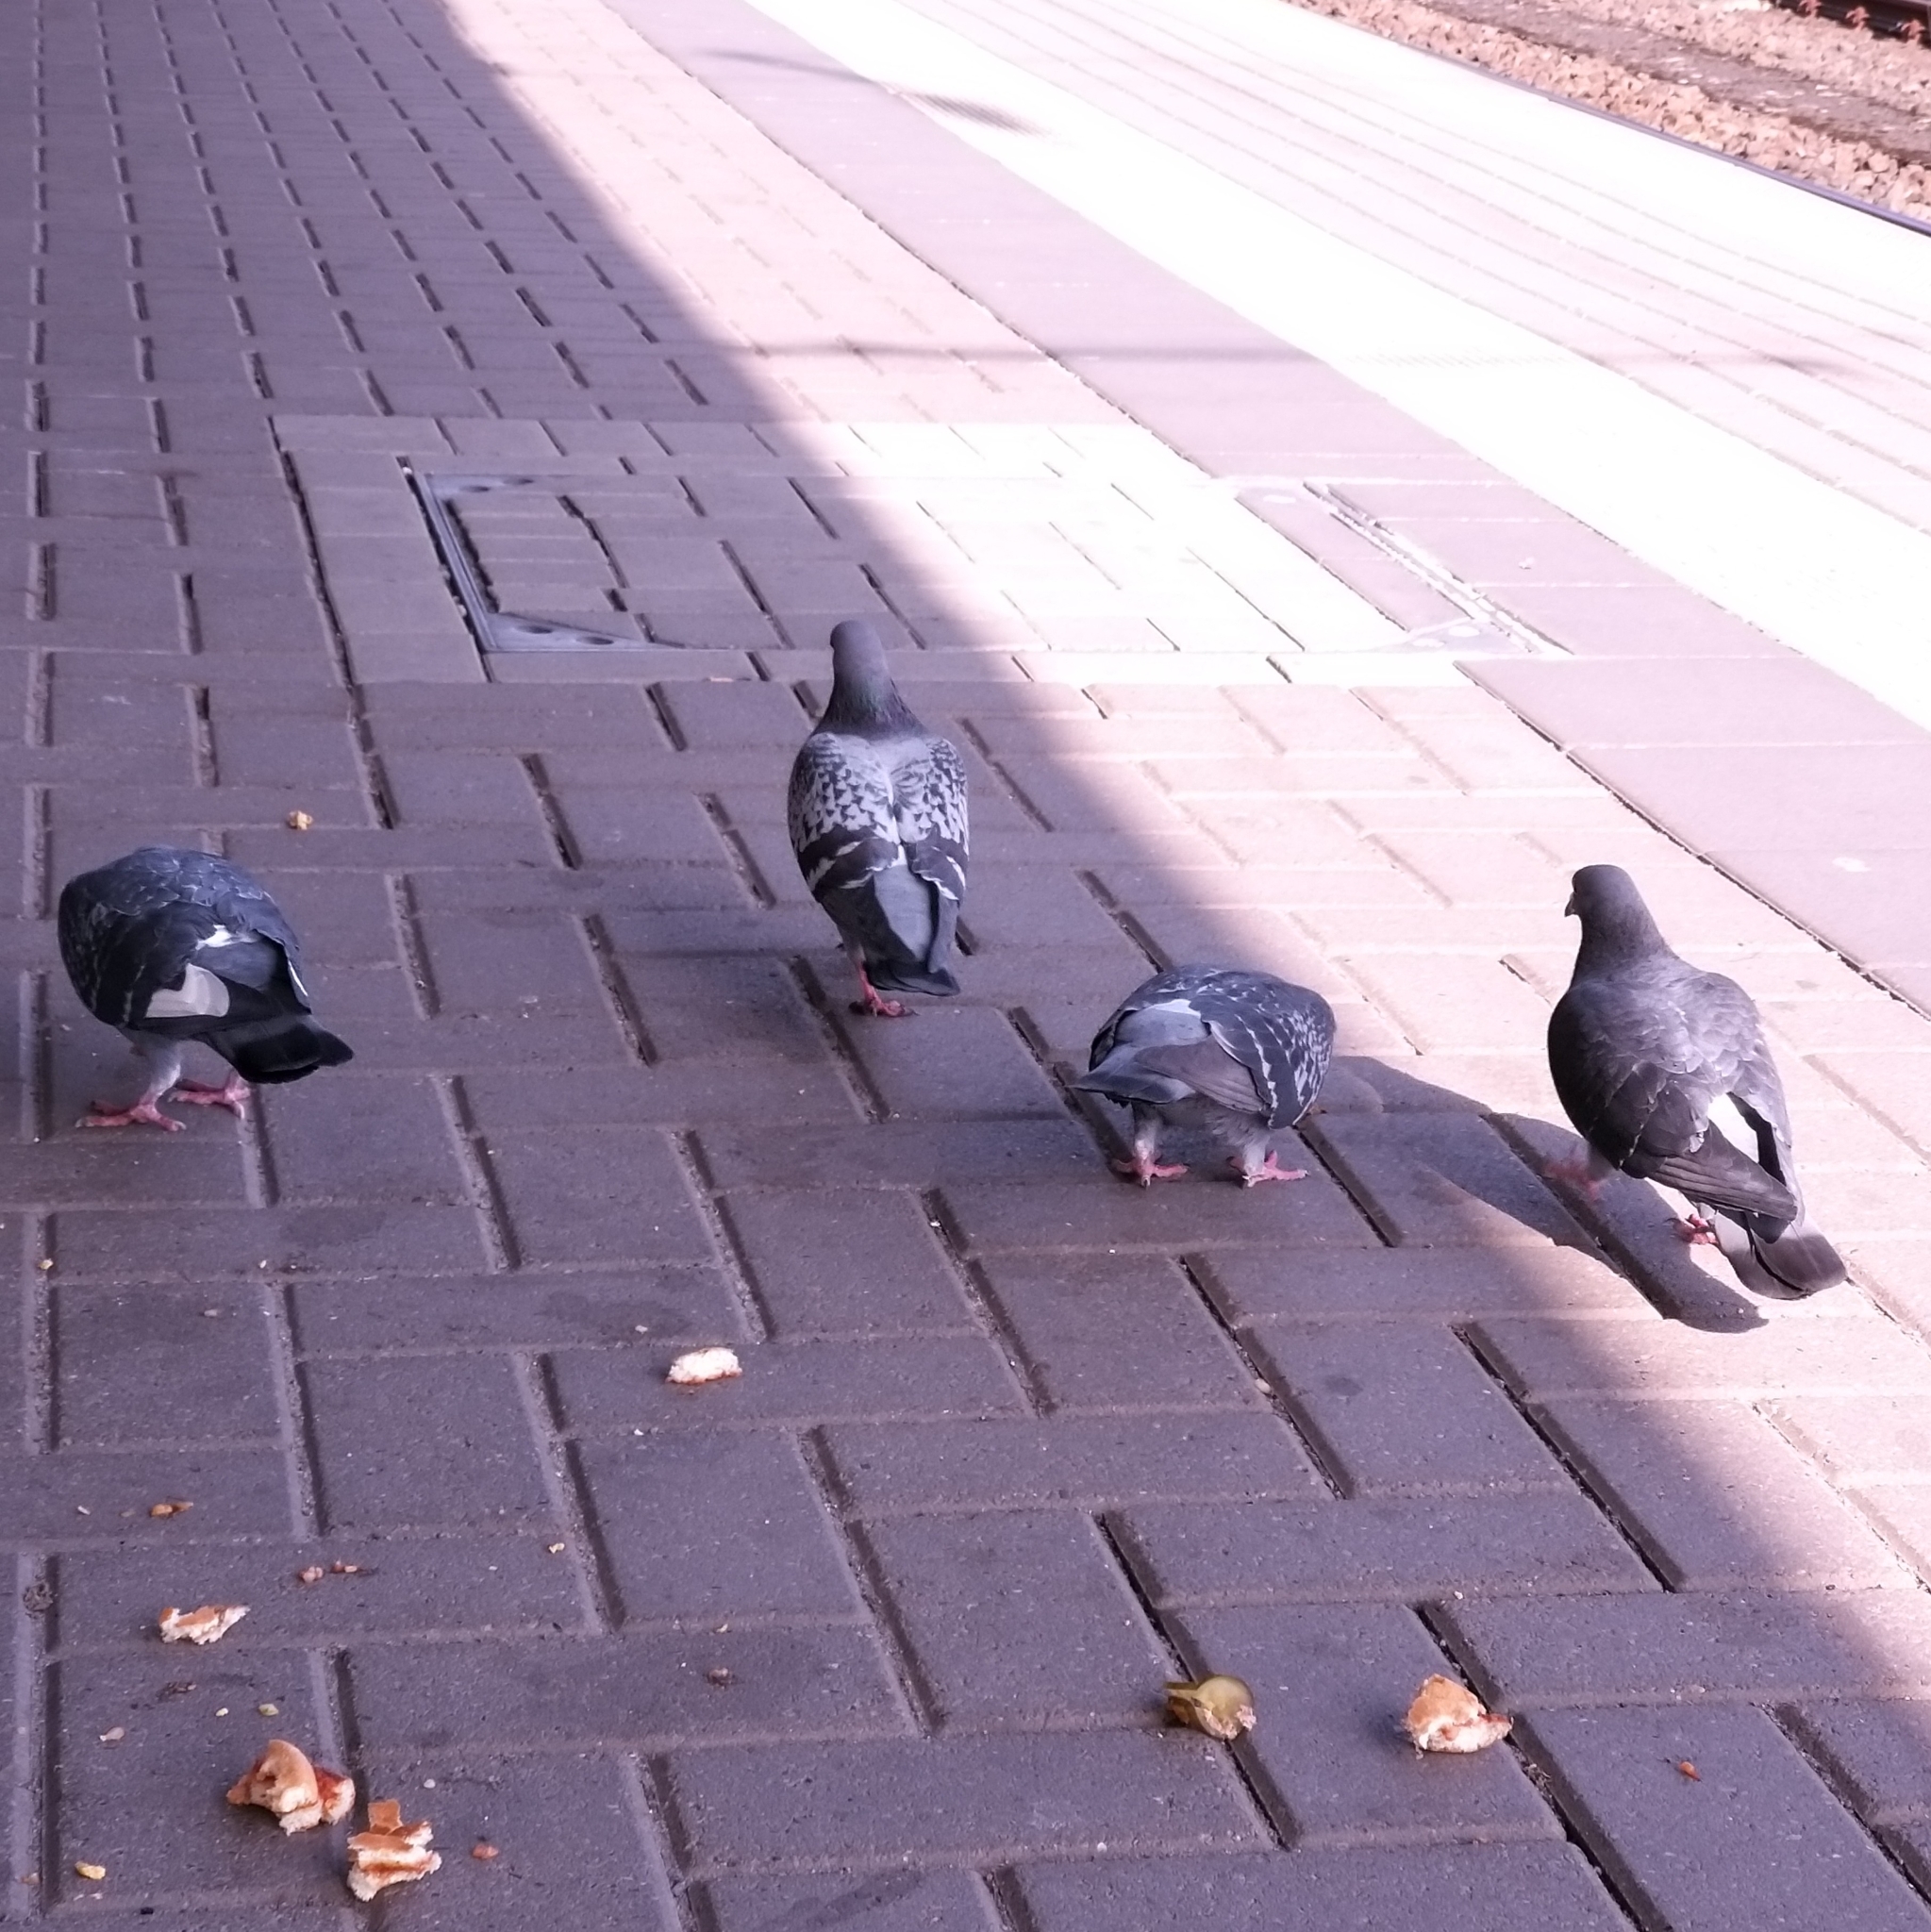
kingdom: Animalia
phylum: Chordata
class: Aves
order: Columbiformes
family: Columbidae
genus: Columba
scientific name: Columba livia
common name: Rock pigeon
